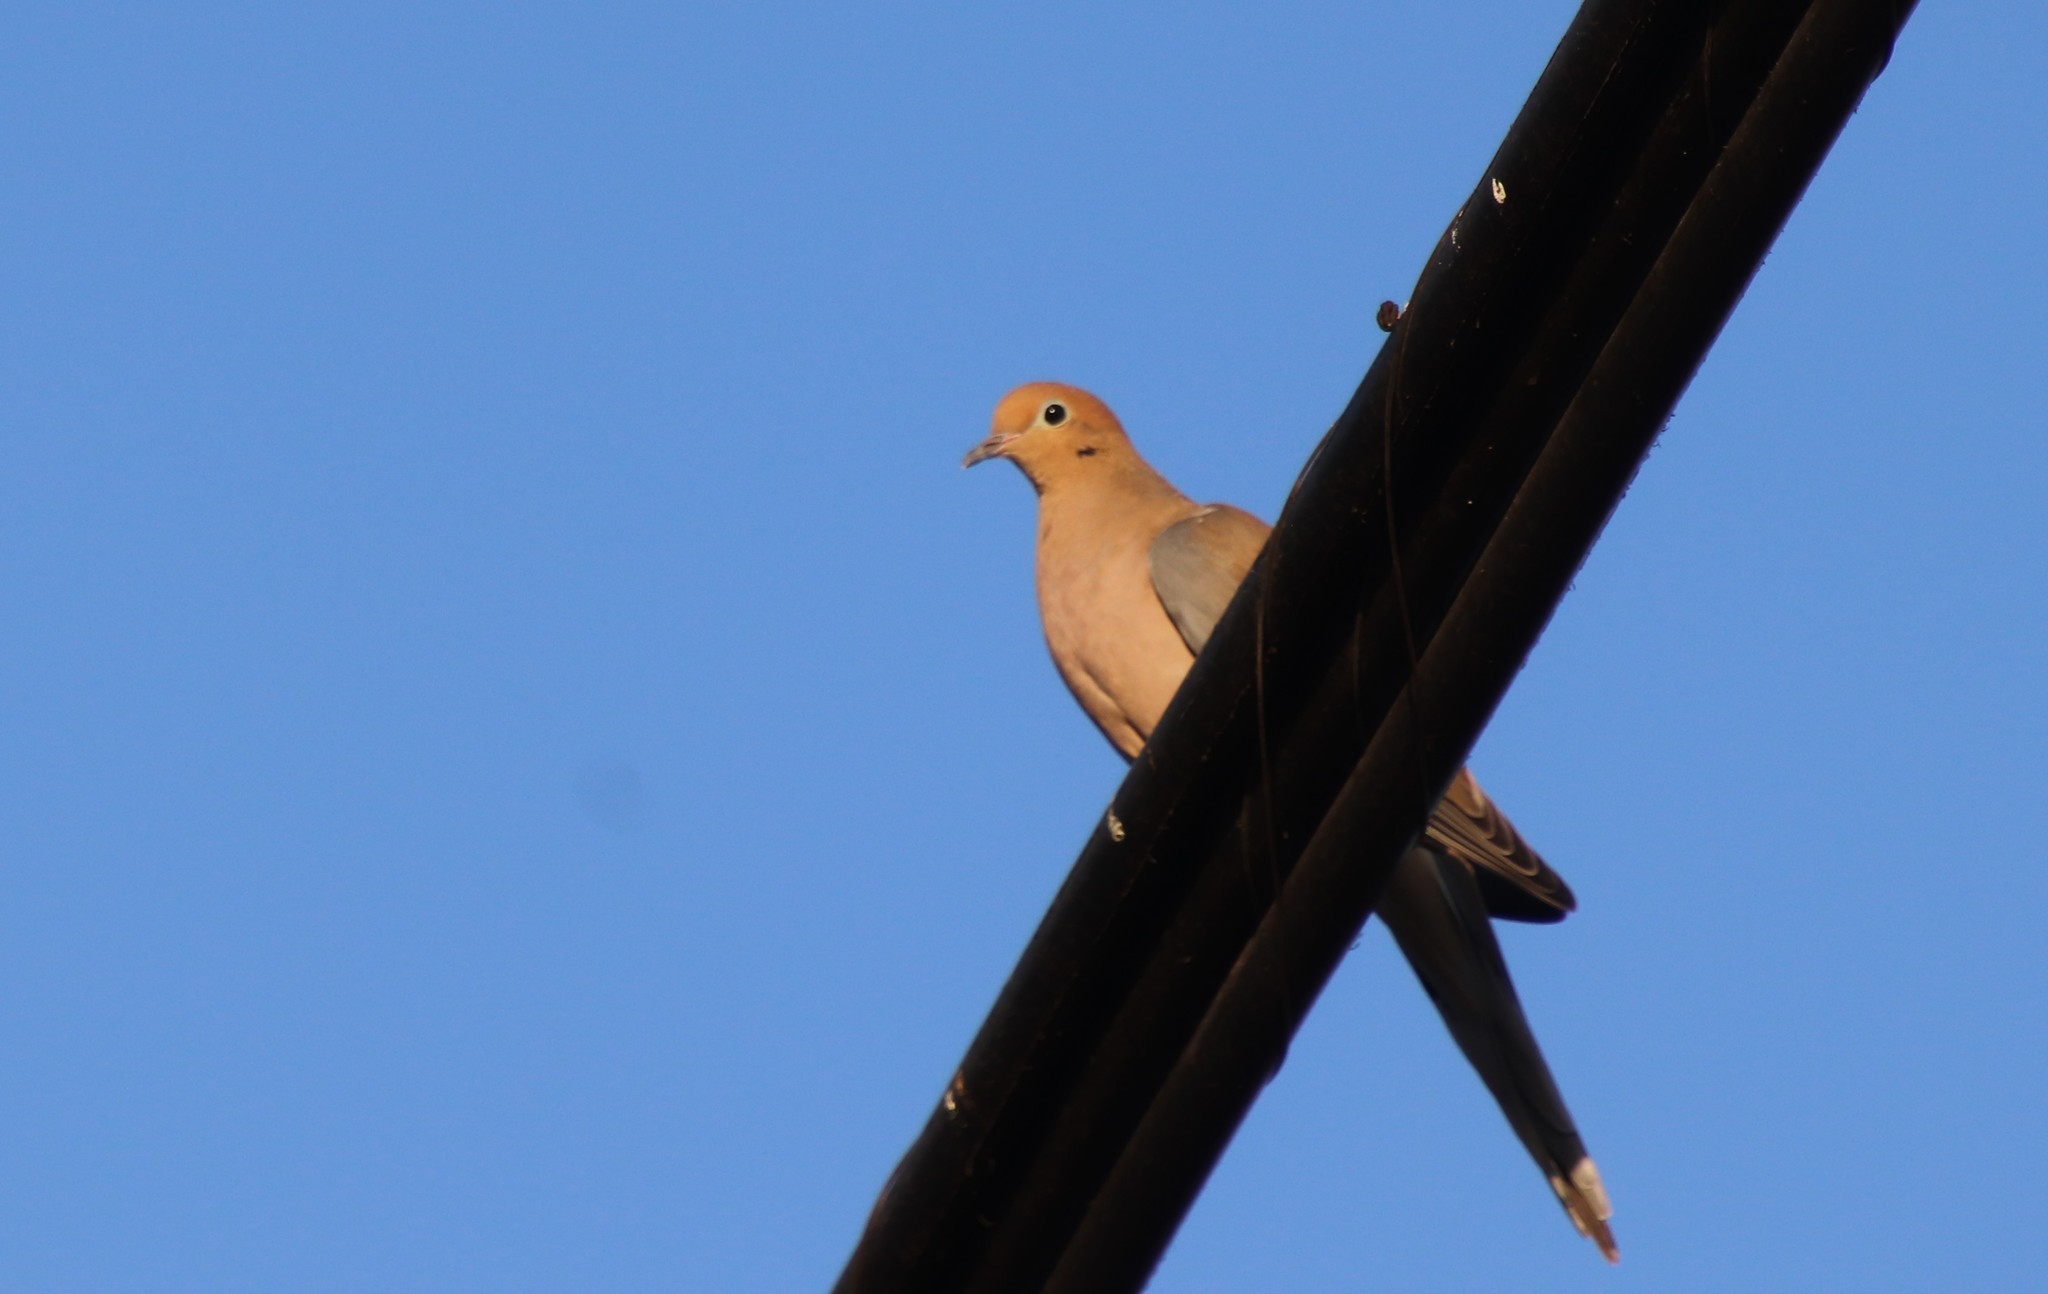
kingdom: Animalia
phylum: Chordata
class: Aves
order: Columbiformes
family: Columbidae
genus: Zenaida
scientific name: Zenaida macroura
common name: Mourning dove
